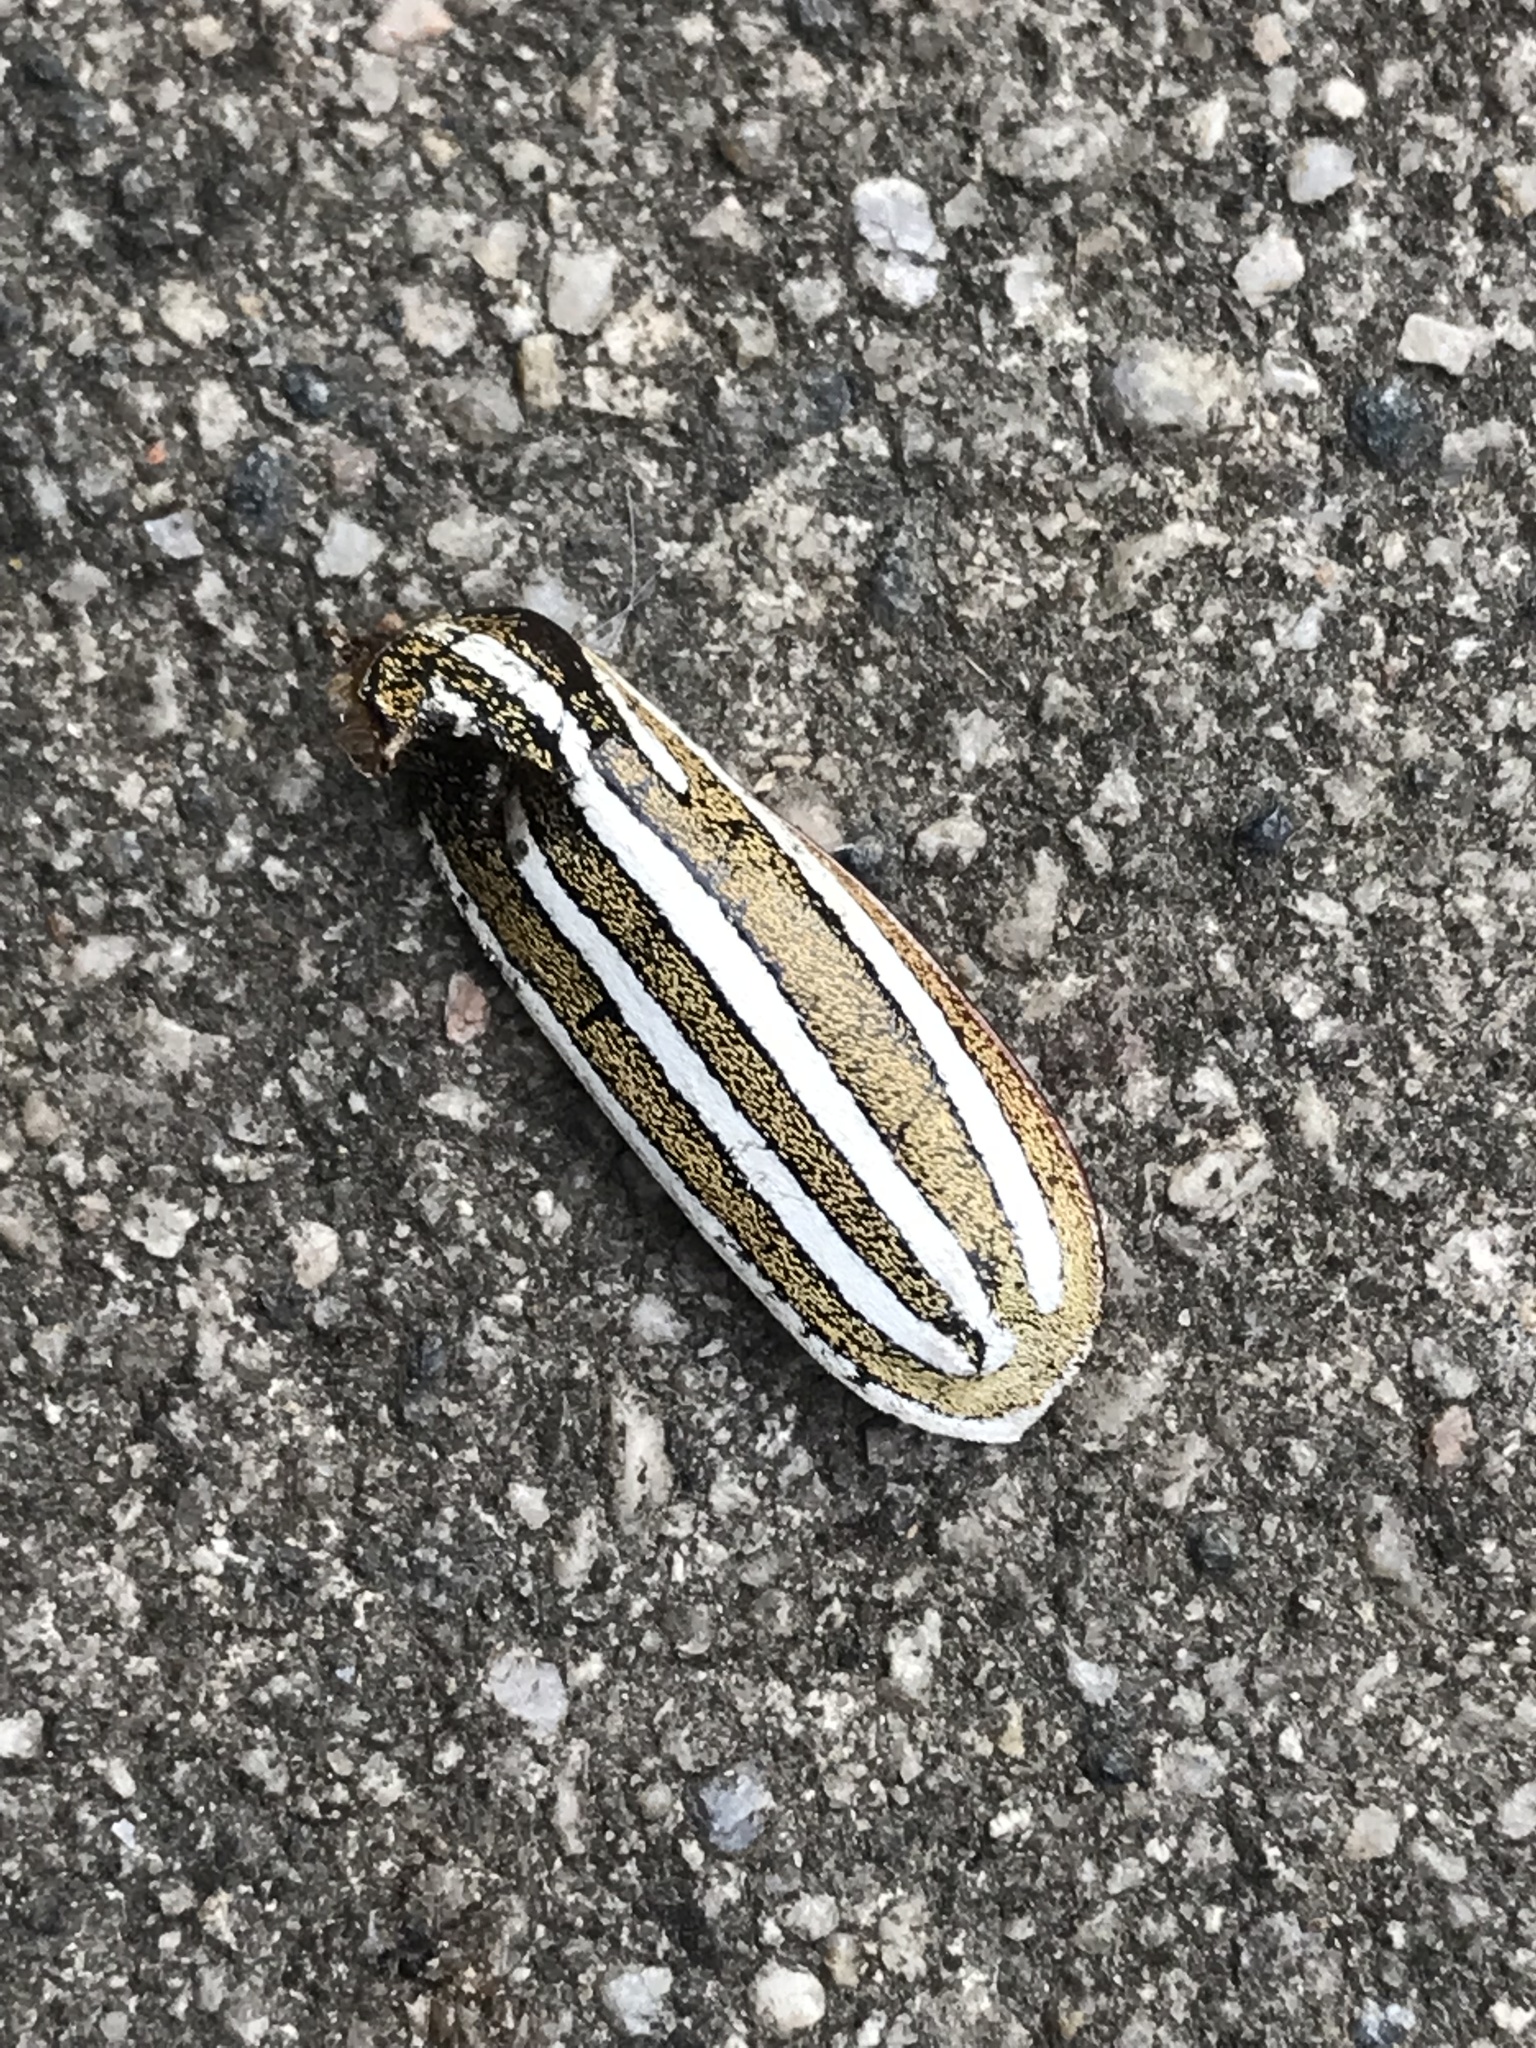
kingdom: Animalia
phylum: Arthropoda
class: Insecta
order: Coleoptera
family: Scarabaeidae
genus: Polyphylla
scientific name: Polyphylla decemlineata
